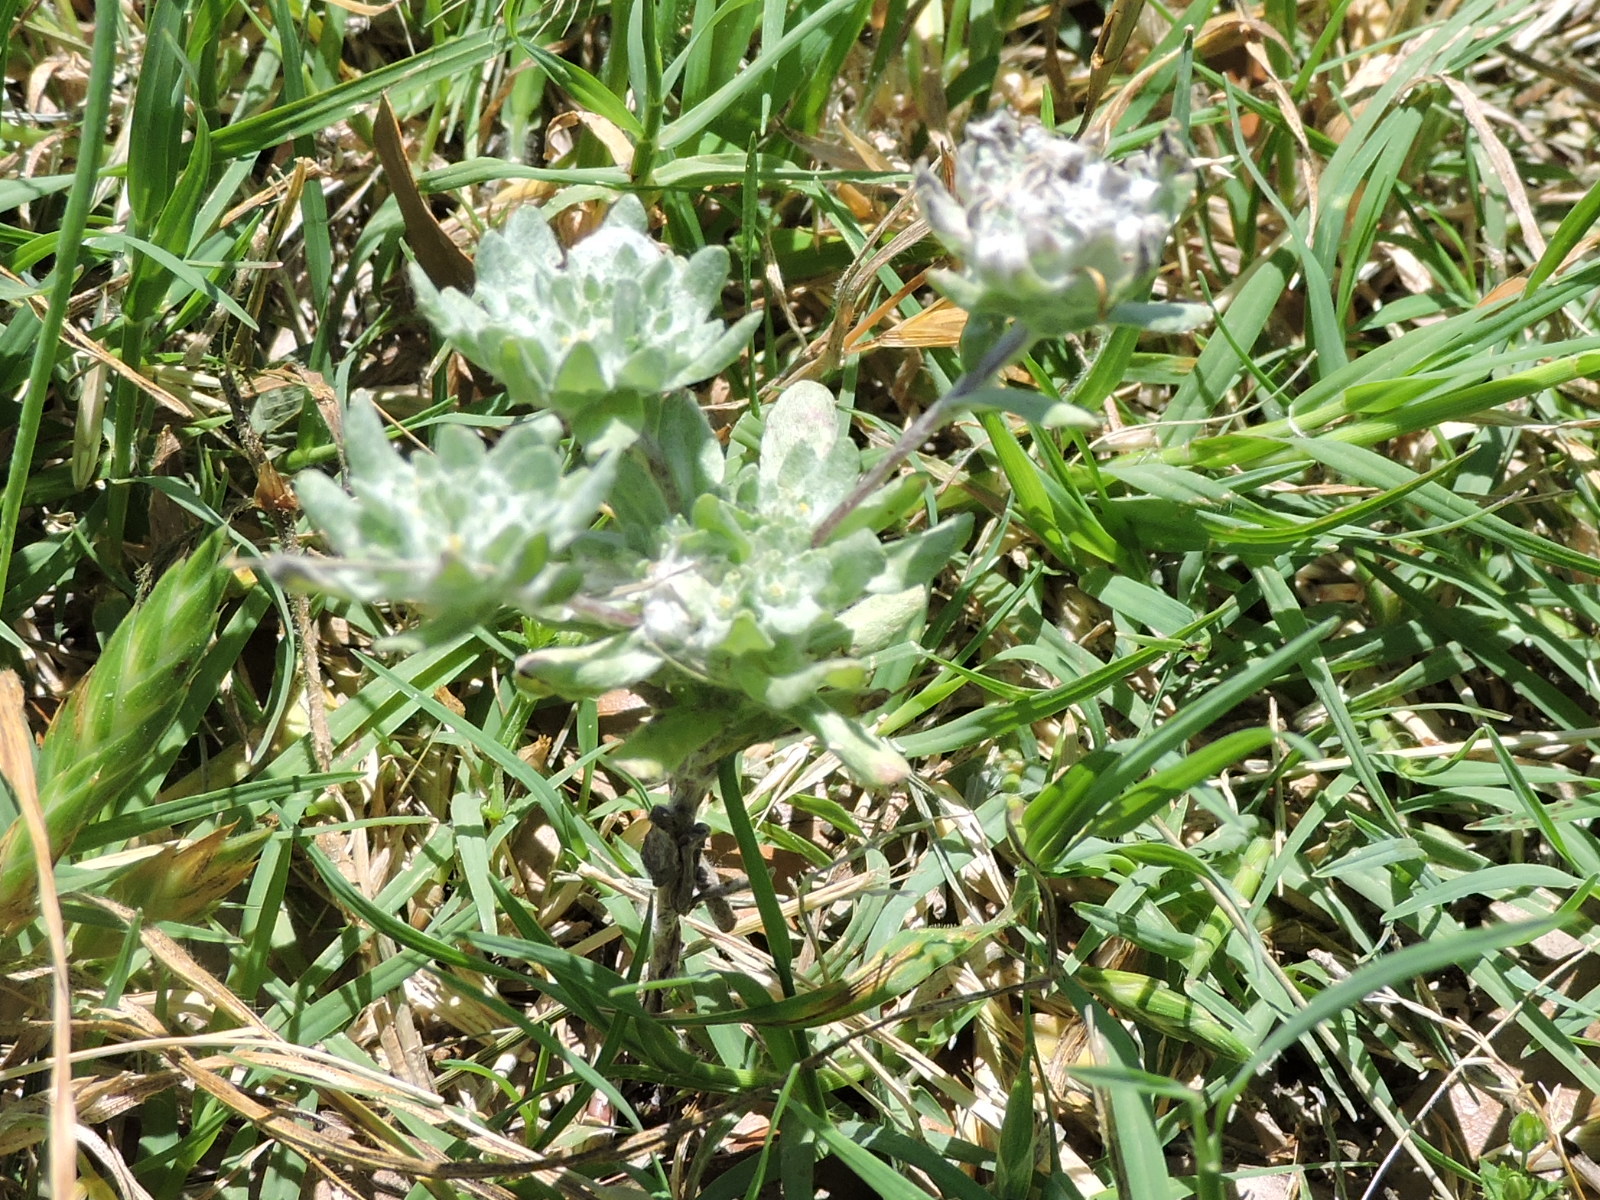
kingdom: Plantae
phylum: Tracheophyta
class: Magnoliopsida
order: Asterales
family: Asteraceae
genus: Diaperia
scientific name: Diaperia prolifera
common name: Big-head rabbit-tobacco
